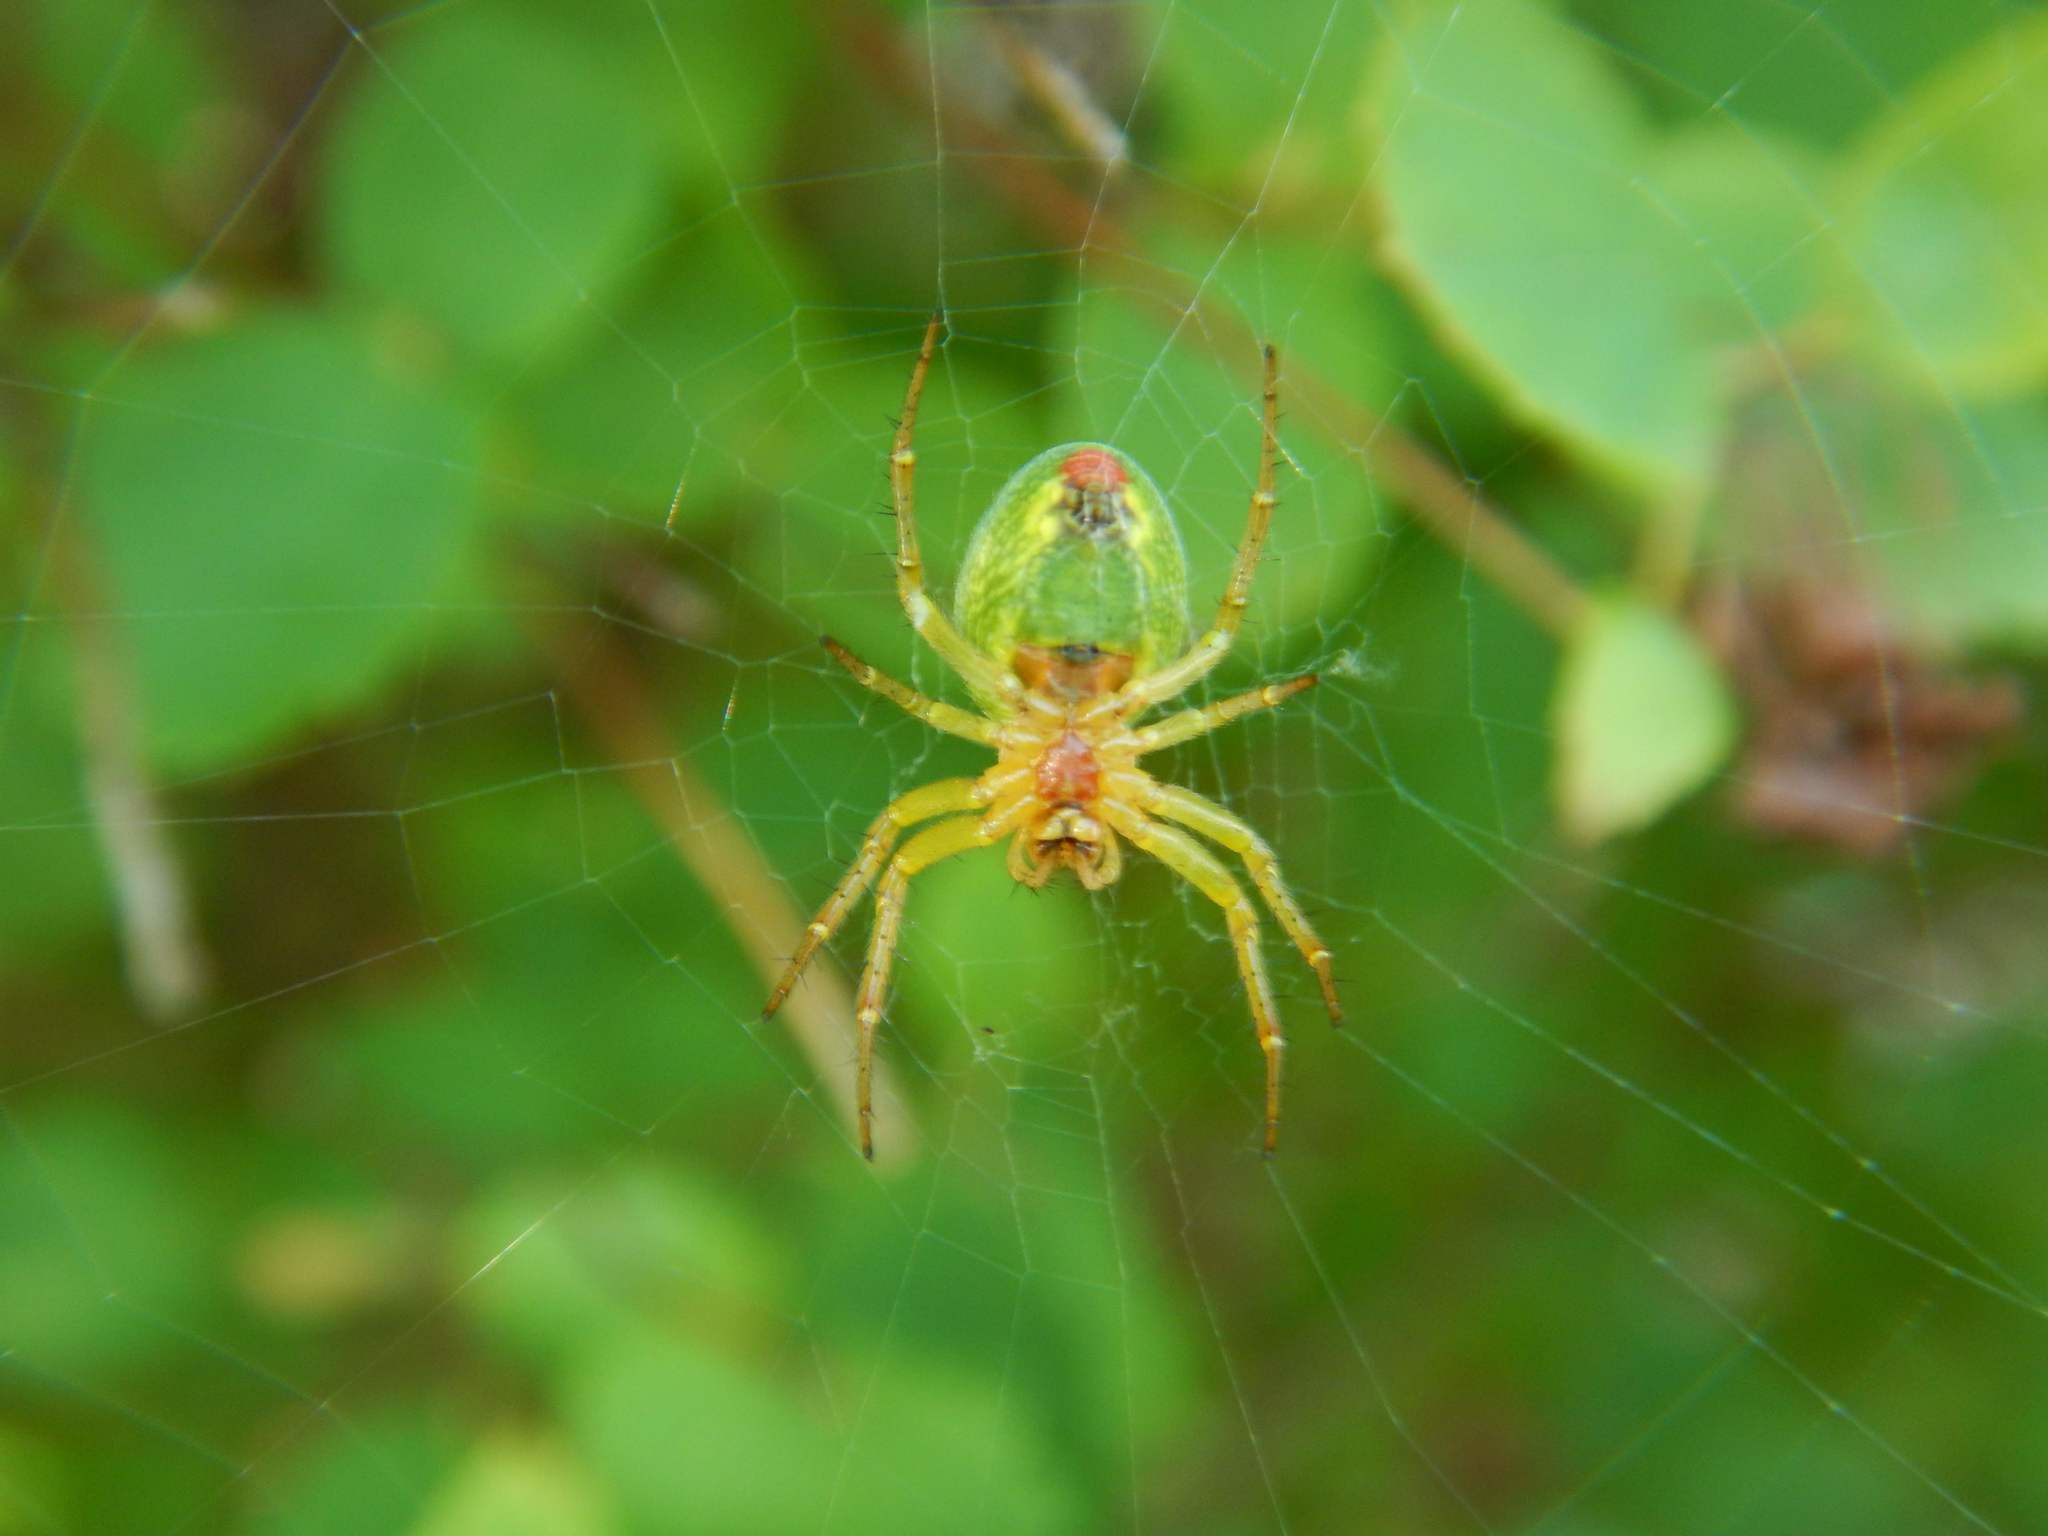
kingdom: Animalia
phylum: Arthropoda
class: Arachnida
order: Araneae
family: Araneidae
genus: Araniella
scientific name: Araniella
